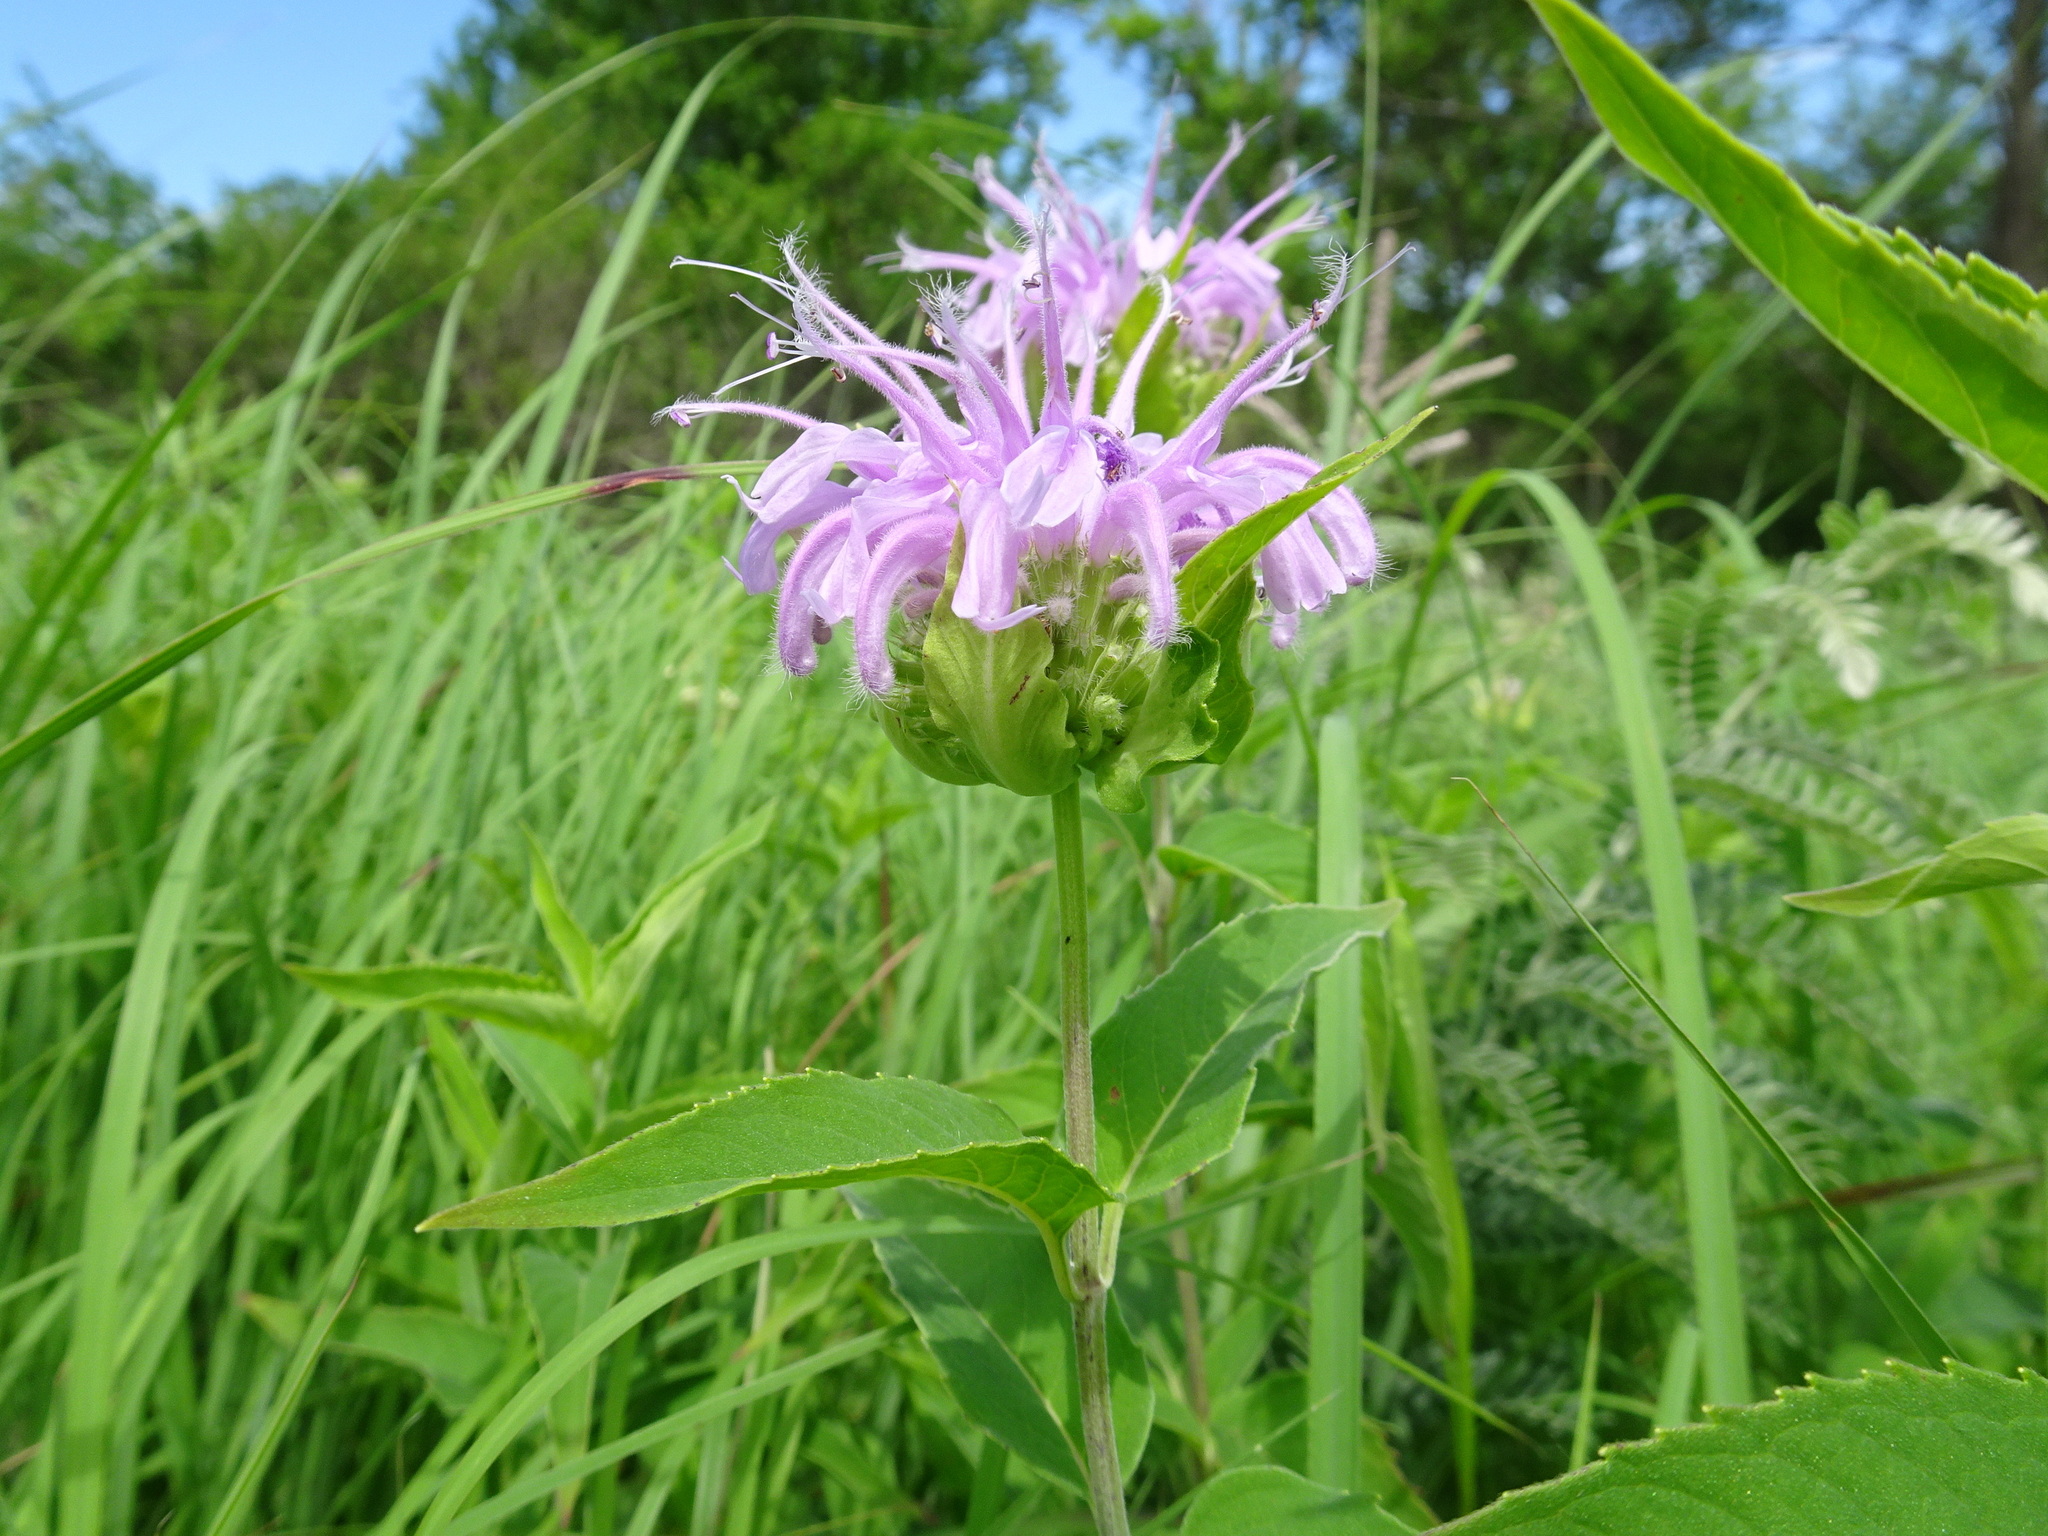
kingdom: Plantae
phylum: Tracheophyta
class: Magnoliopsida
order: Lamiales
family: Lamiaceae
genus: Monarda
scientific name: Monarda fistulosa
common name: Purple beebalm
